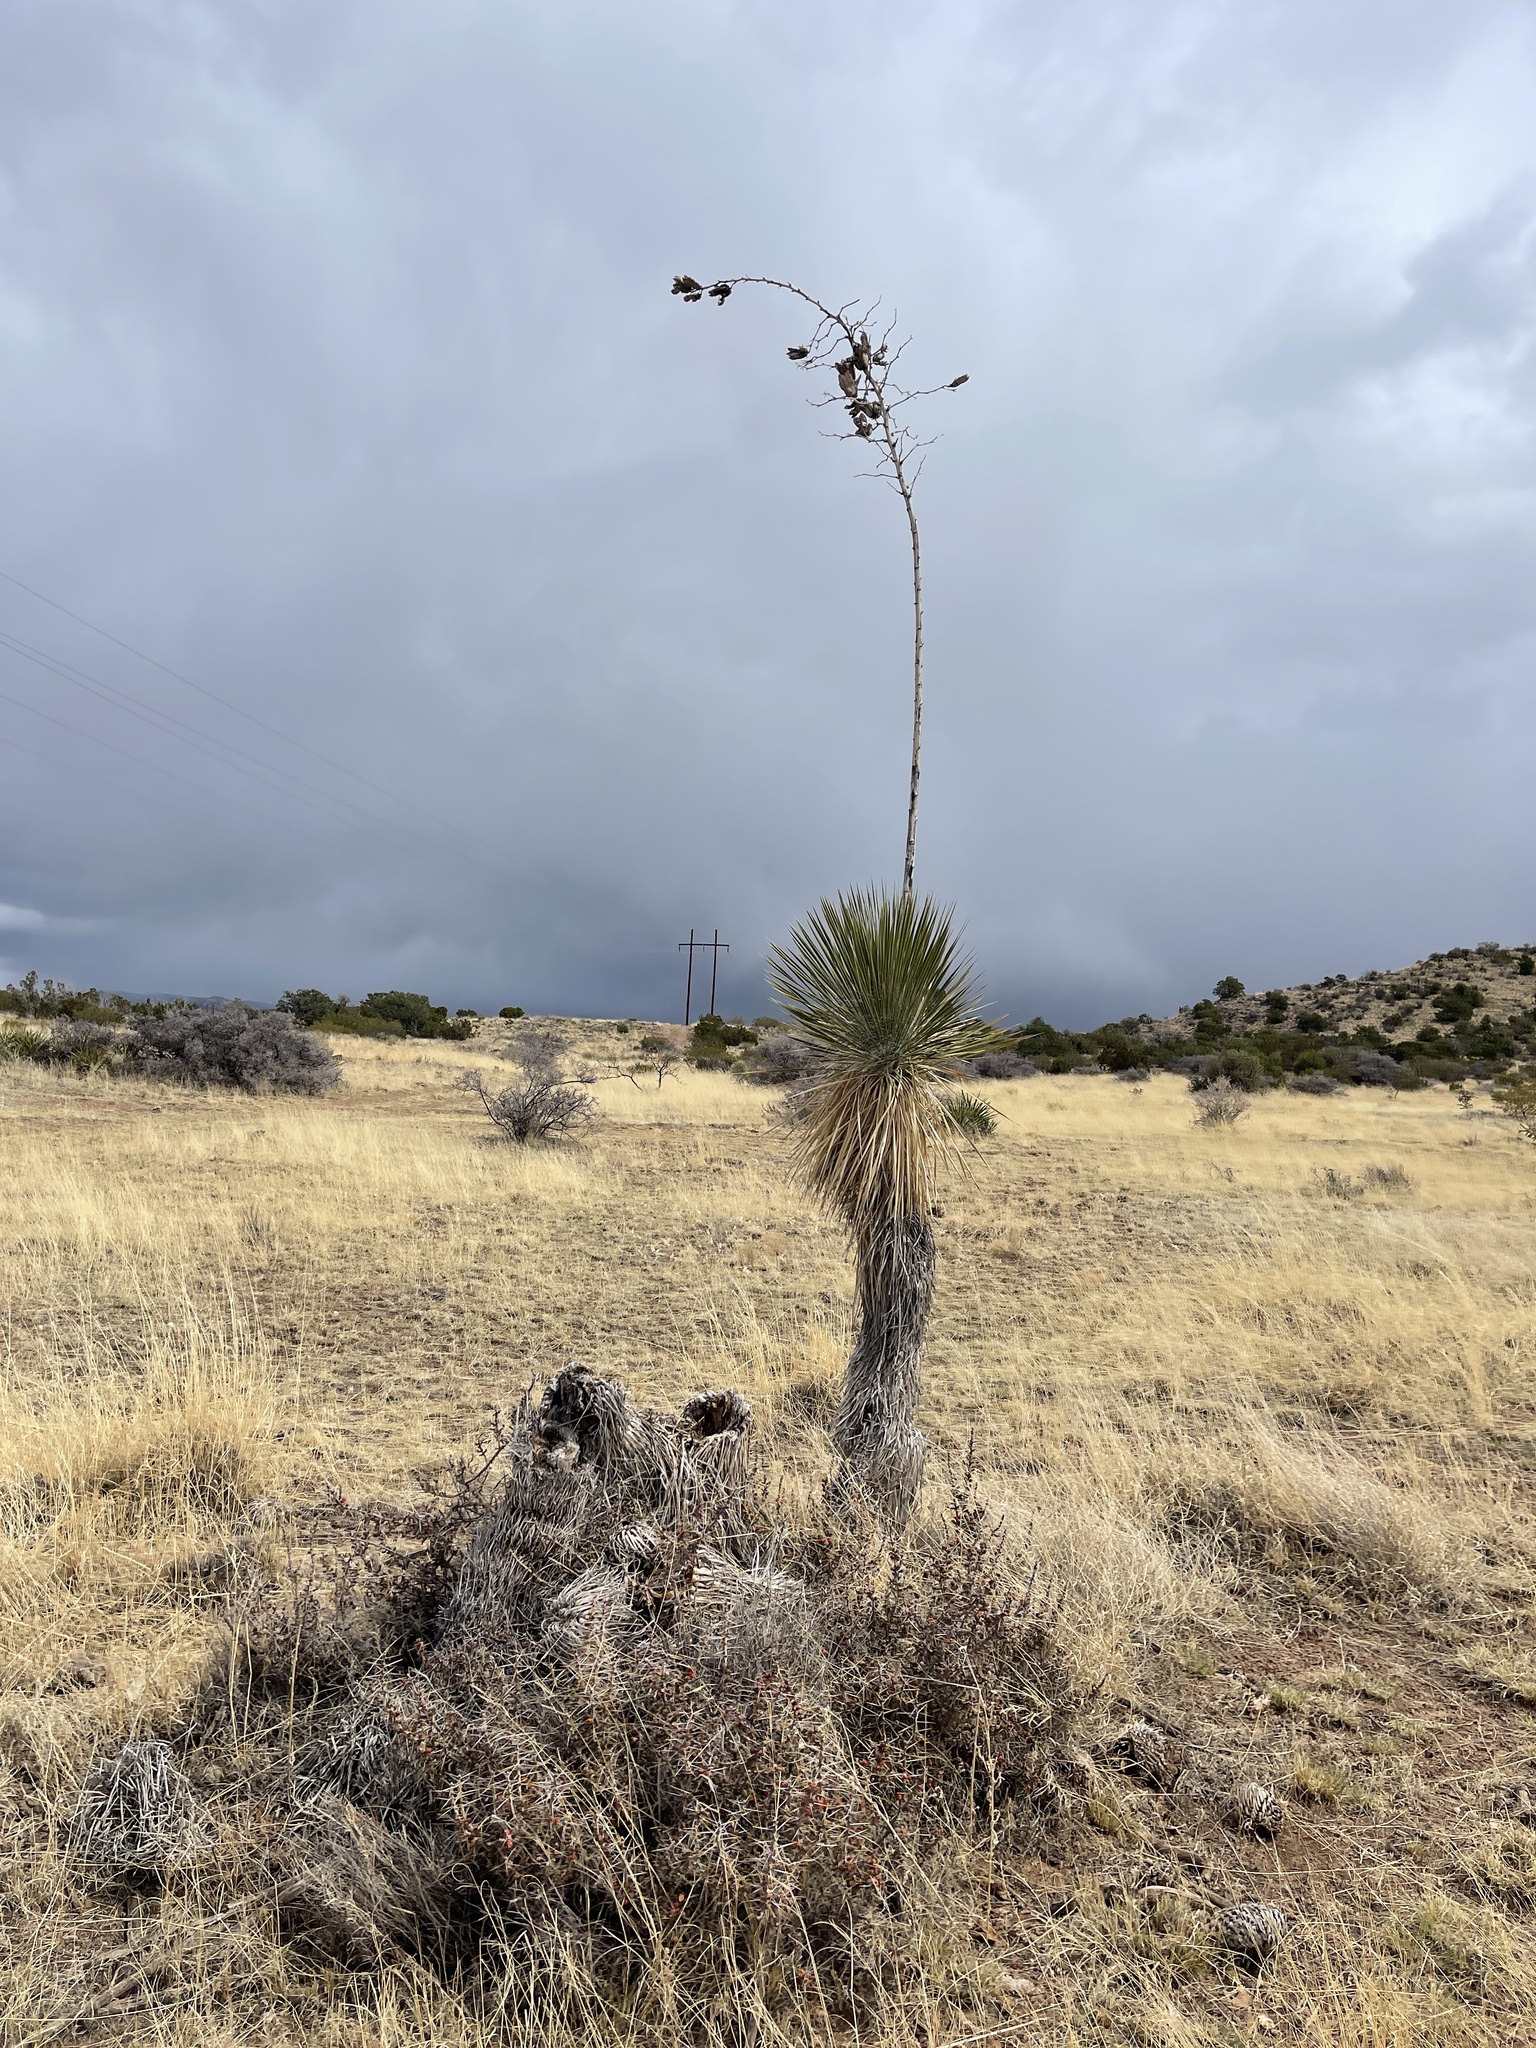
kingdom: Plantae
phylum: Tracheophyta
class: Liliopsida
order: Asparagales
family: Asparagaceae
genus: Yucca
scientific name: Yucca elata
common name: Palmella
